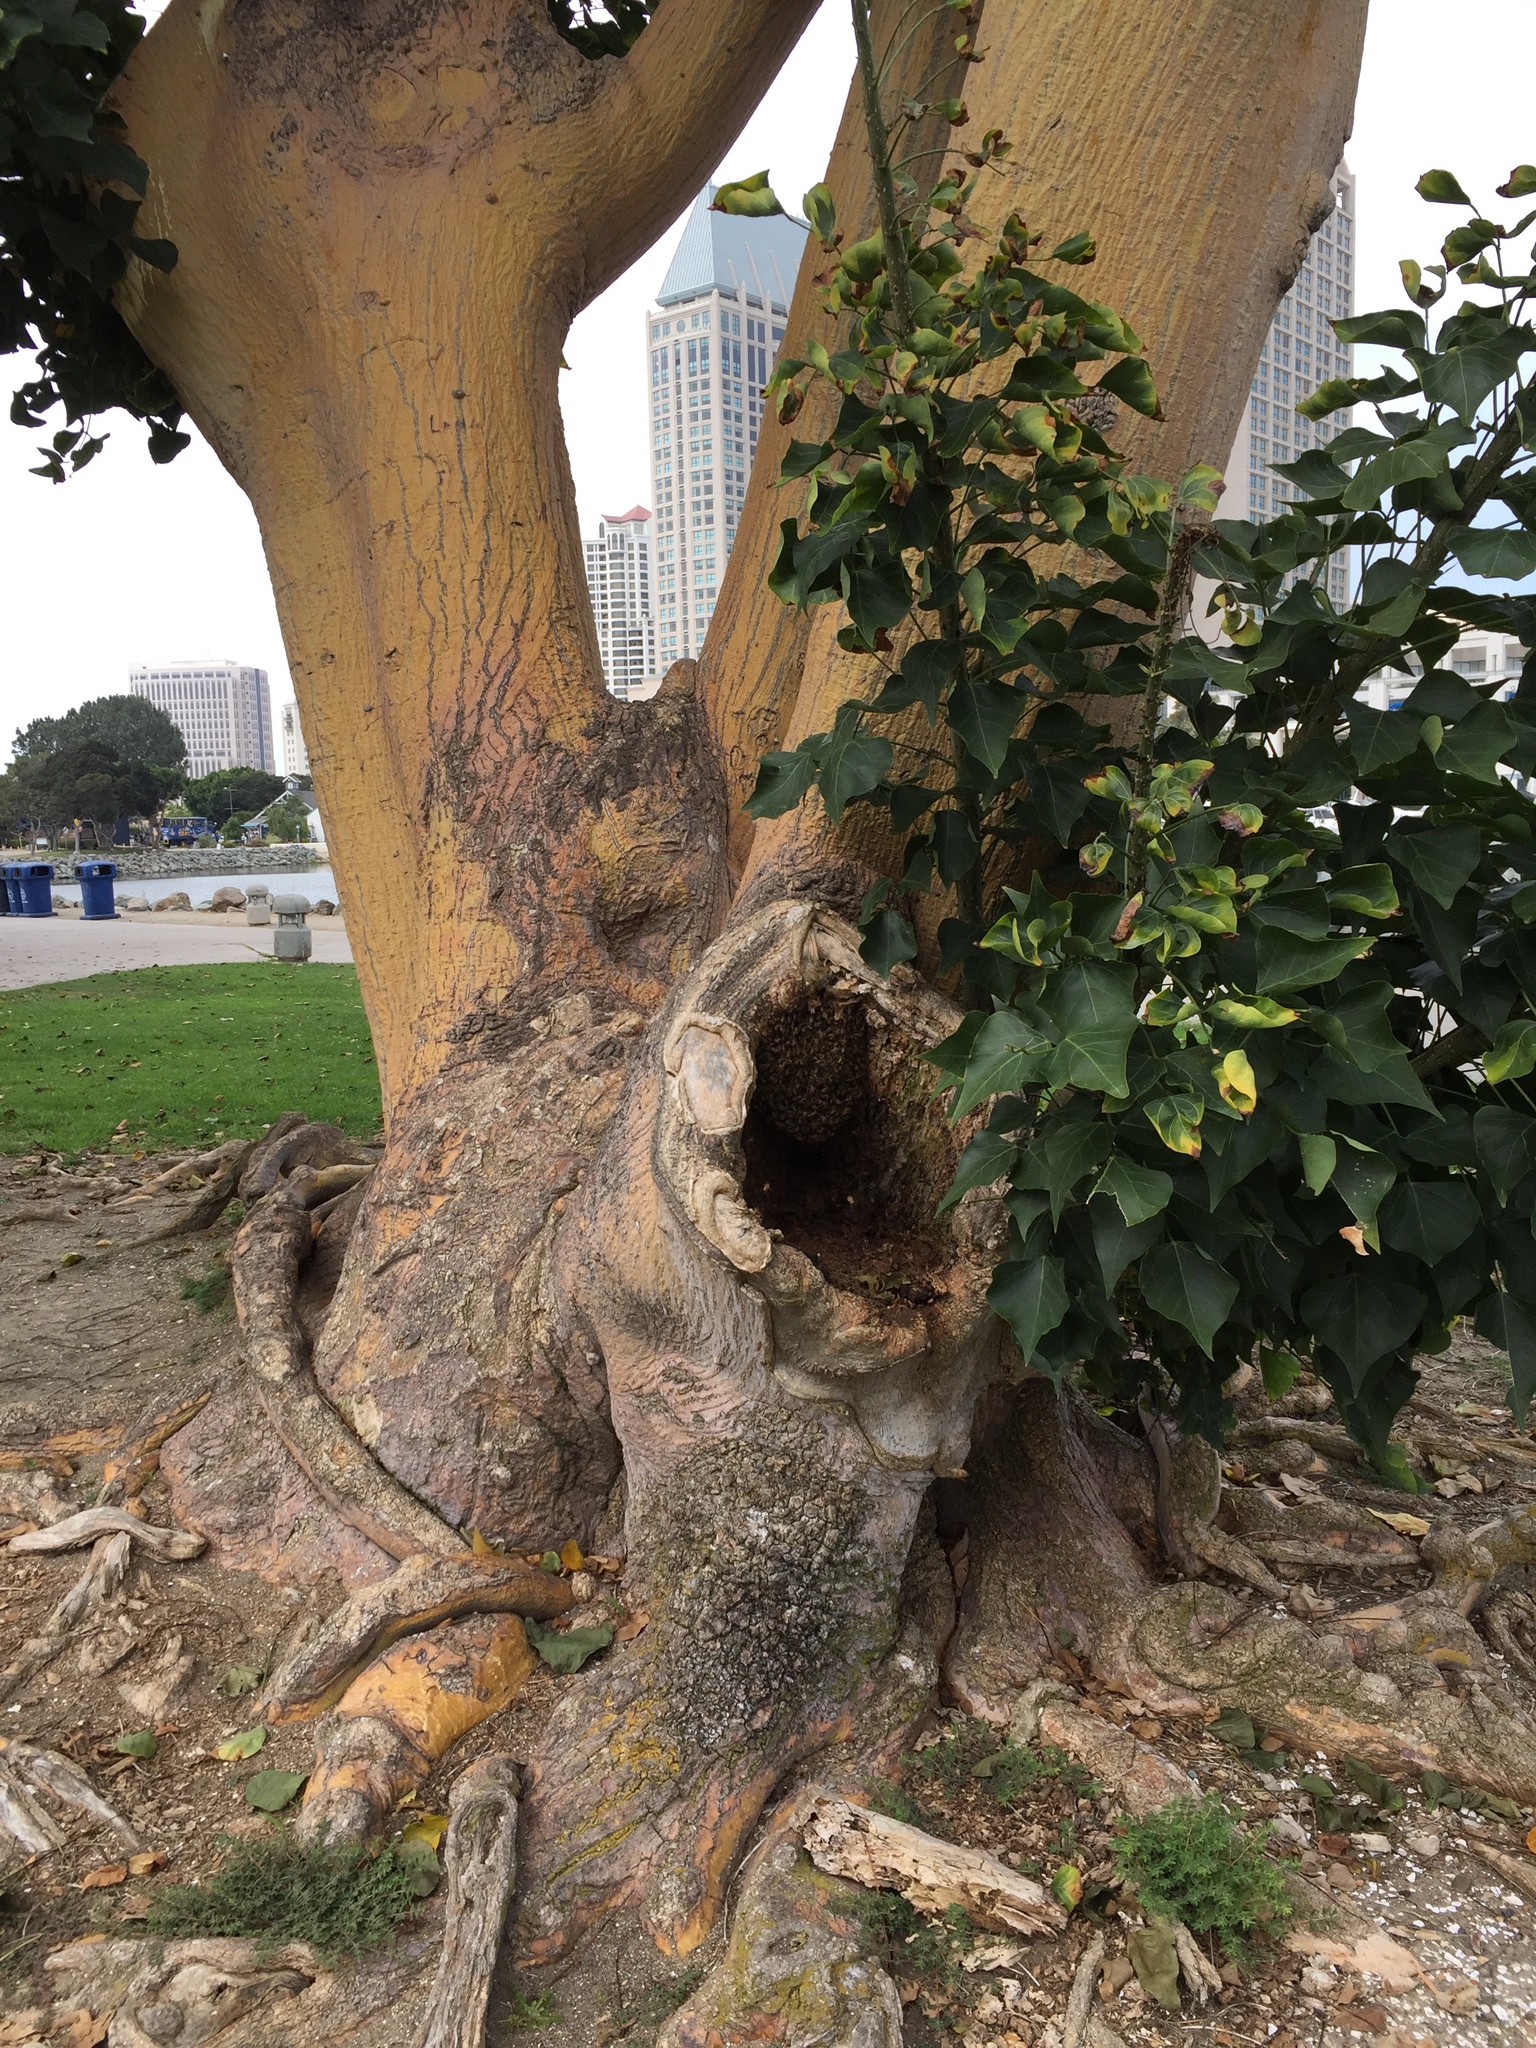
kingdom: Animalia
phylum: Arthropoda
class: Insecta
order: Hymenoptera
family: Apidae
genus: Apis
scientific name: Apis mellifera
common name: Honey bee
